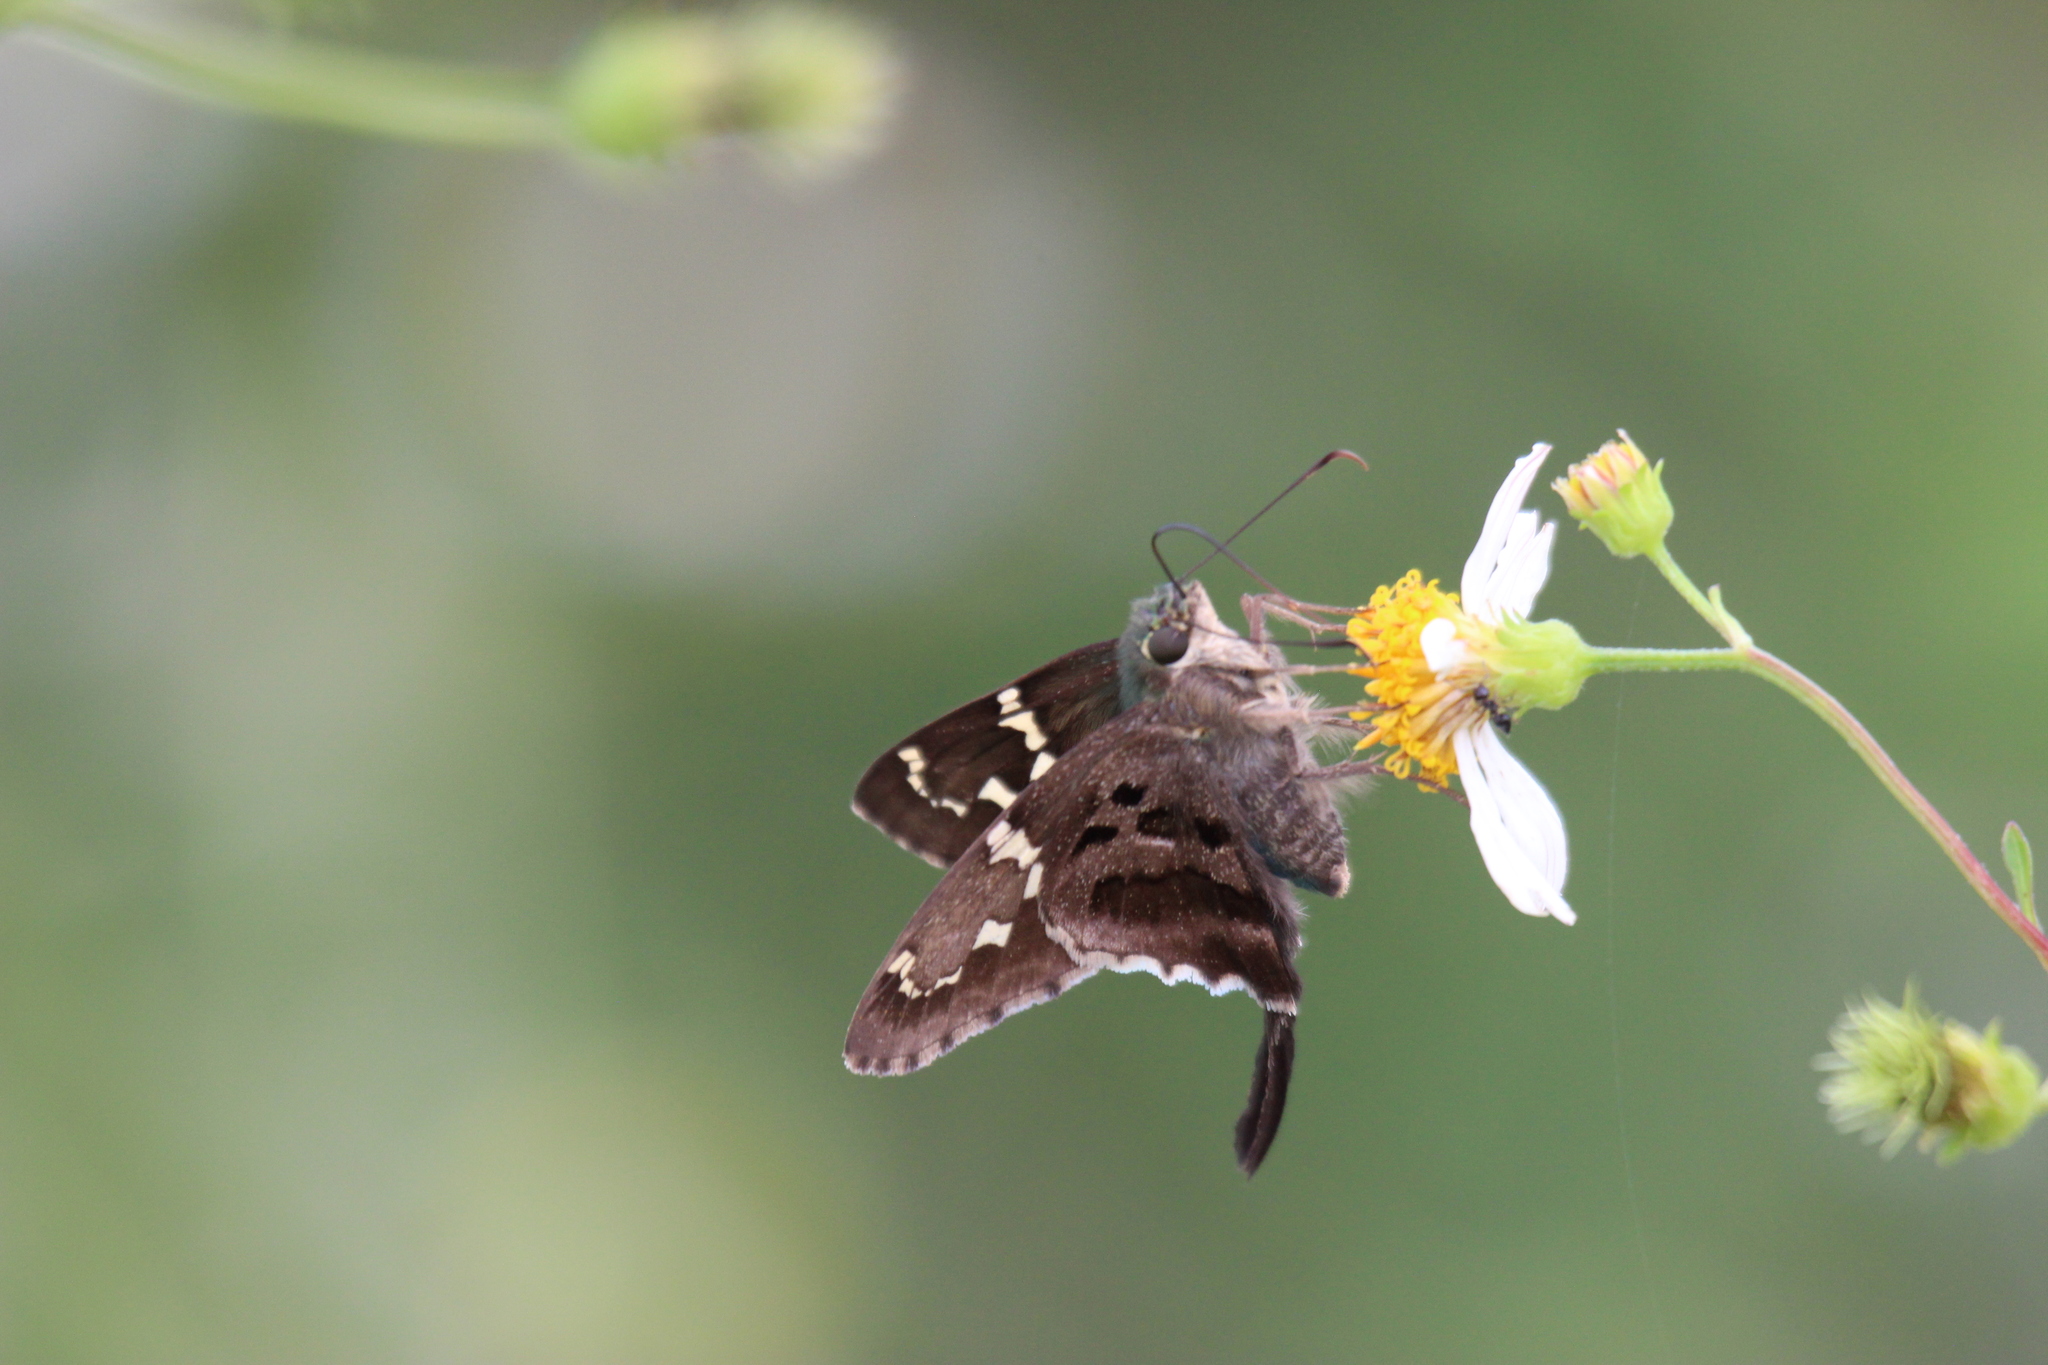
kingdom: Animalia
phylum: Arthropoda
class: Insecta
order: Lepidoptera
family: Hesperiidae
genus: Urbanus
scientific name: Urbanus proteus
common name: Long-tailed skipper
